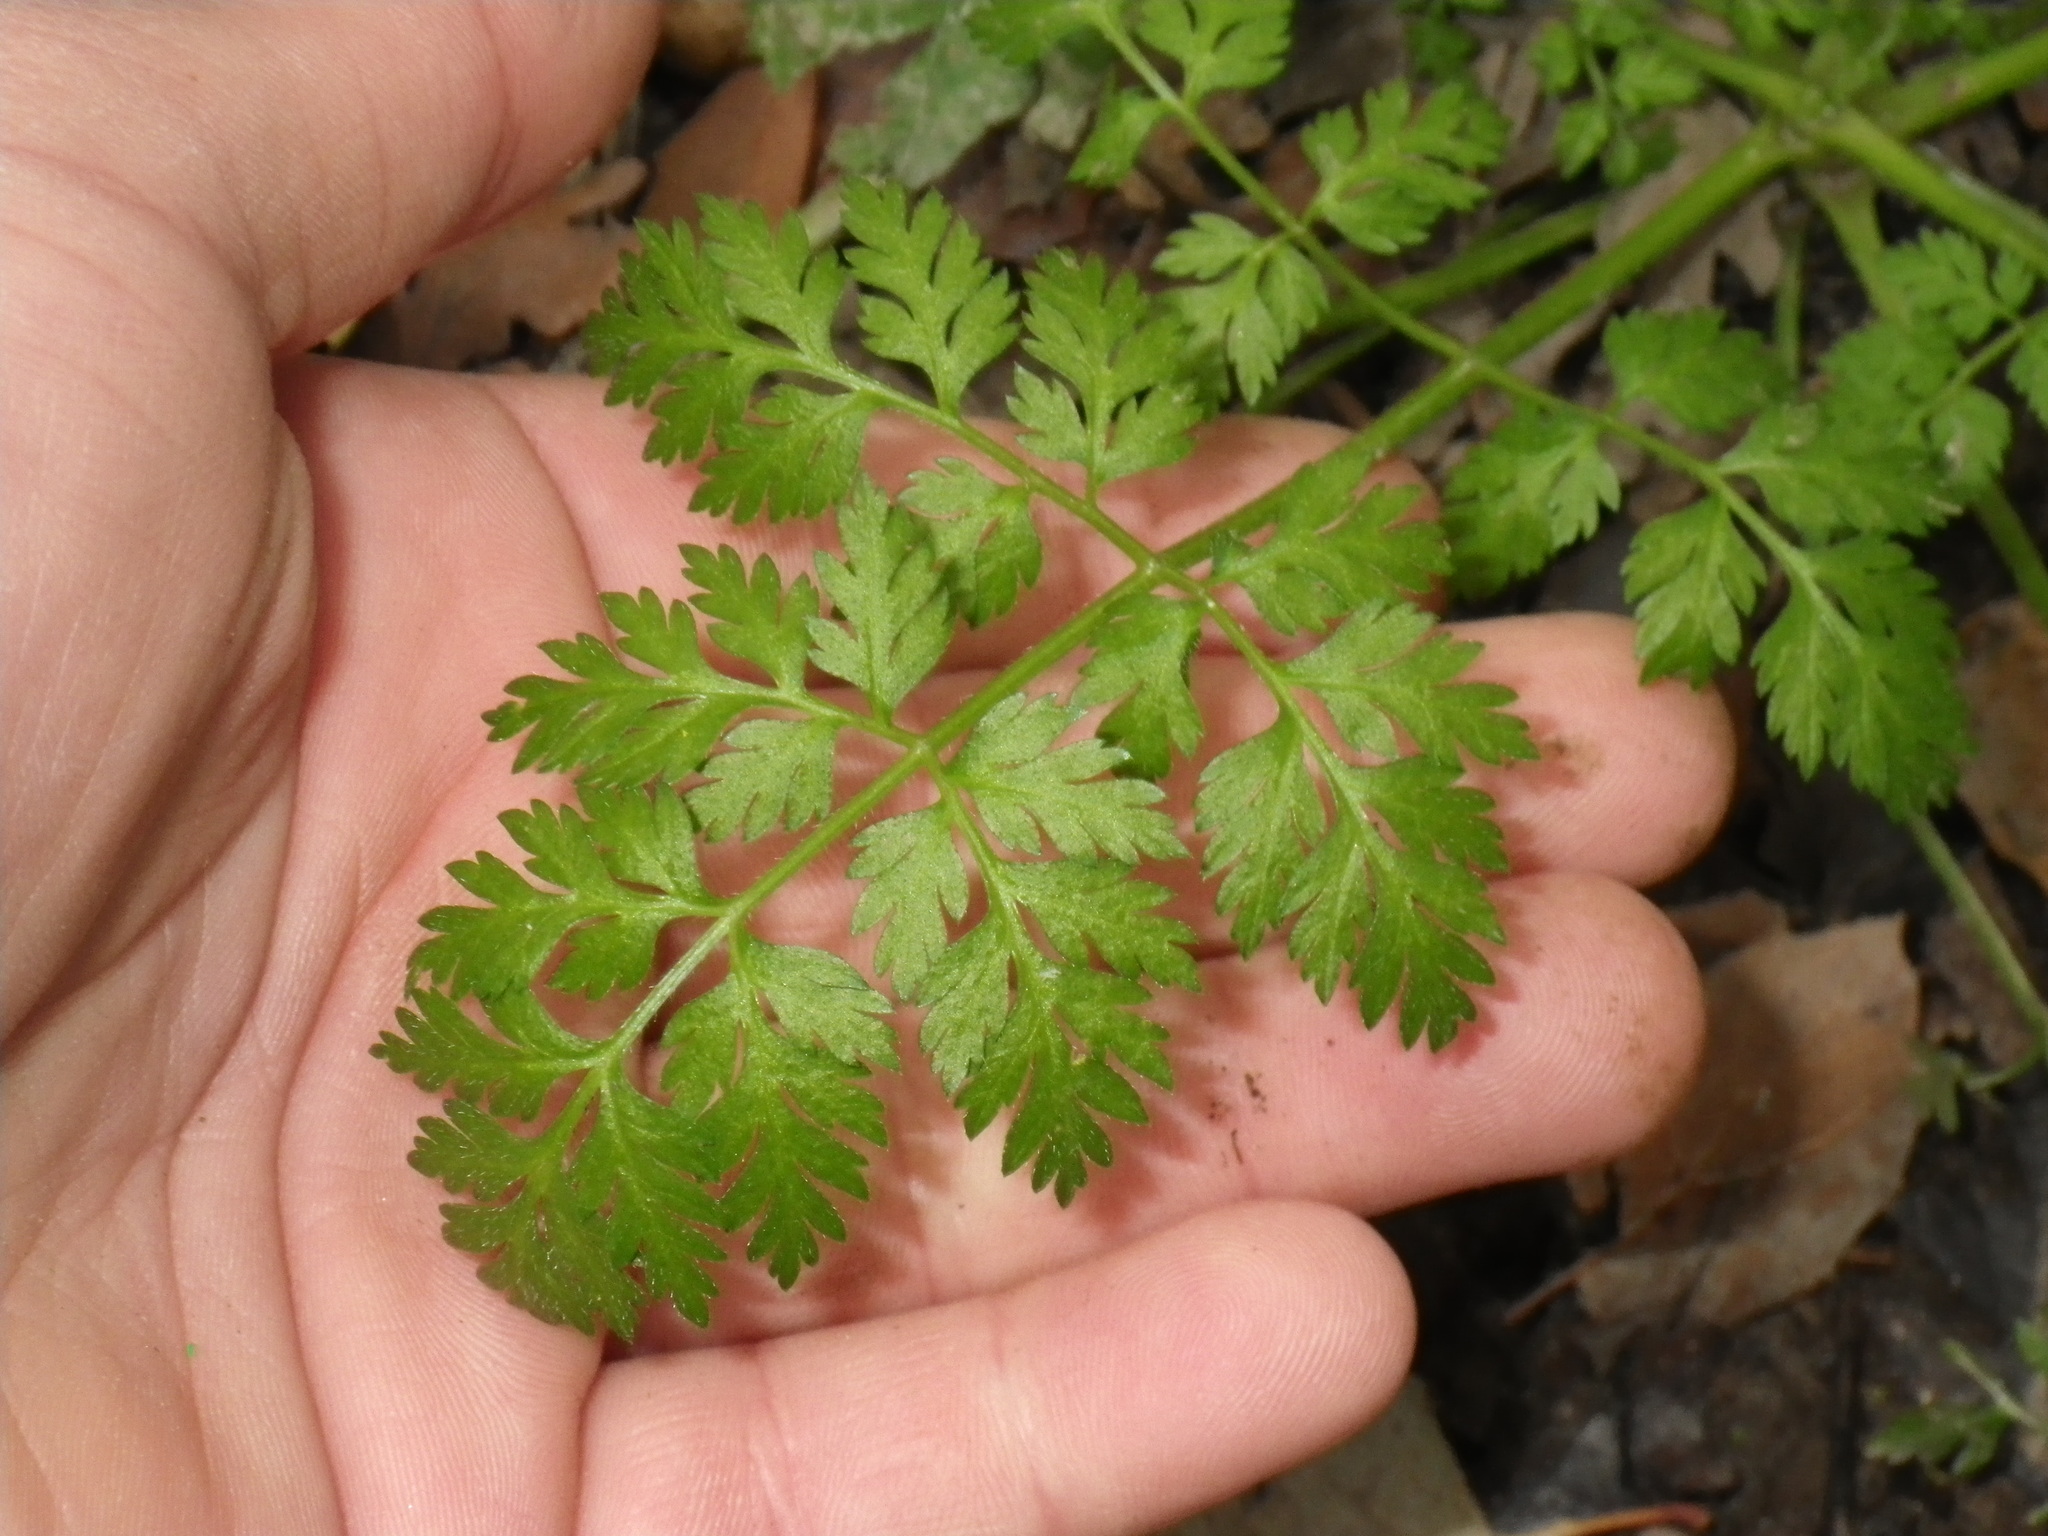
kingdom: Plantae
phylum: Tracheophyta
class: Magnoliopsida
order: Apiales
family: Apiaceae
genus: Daucus
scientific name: Daucus carota
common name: Wild carrot
